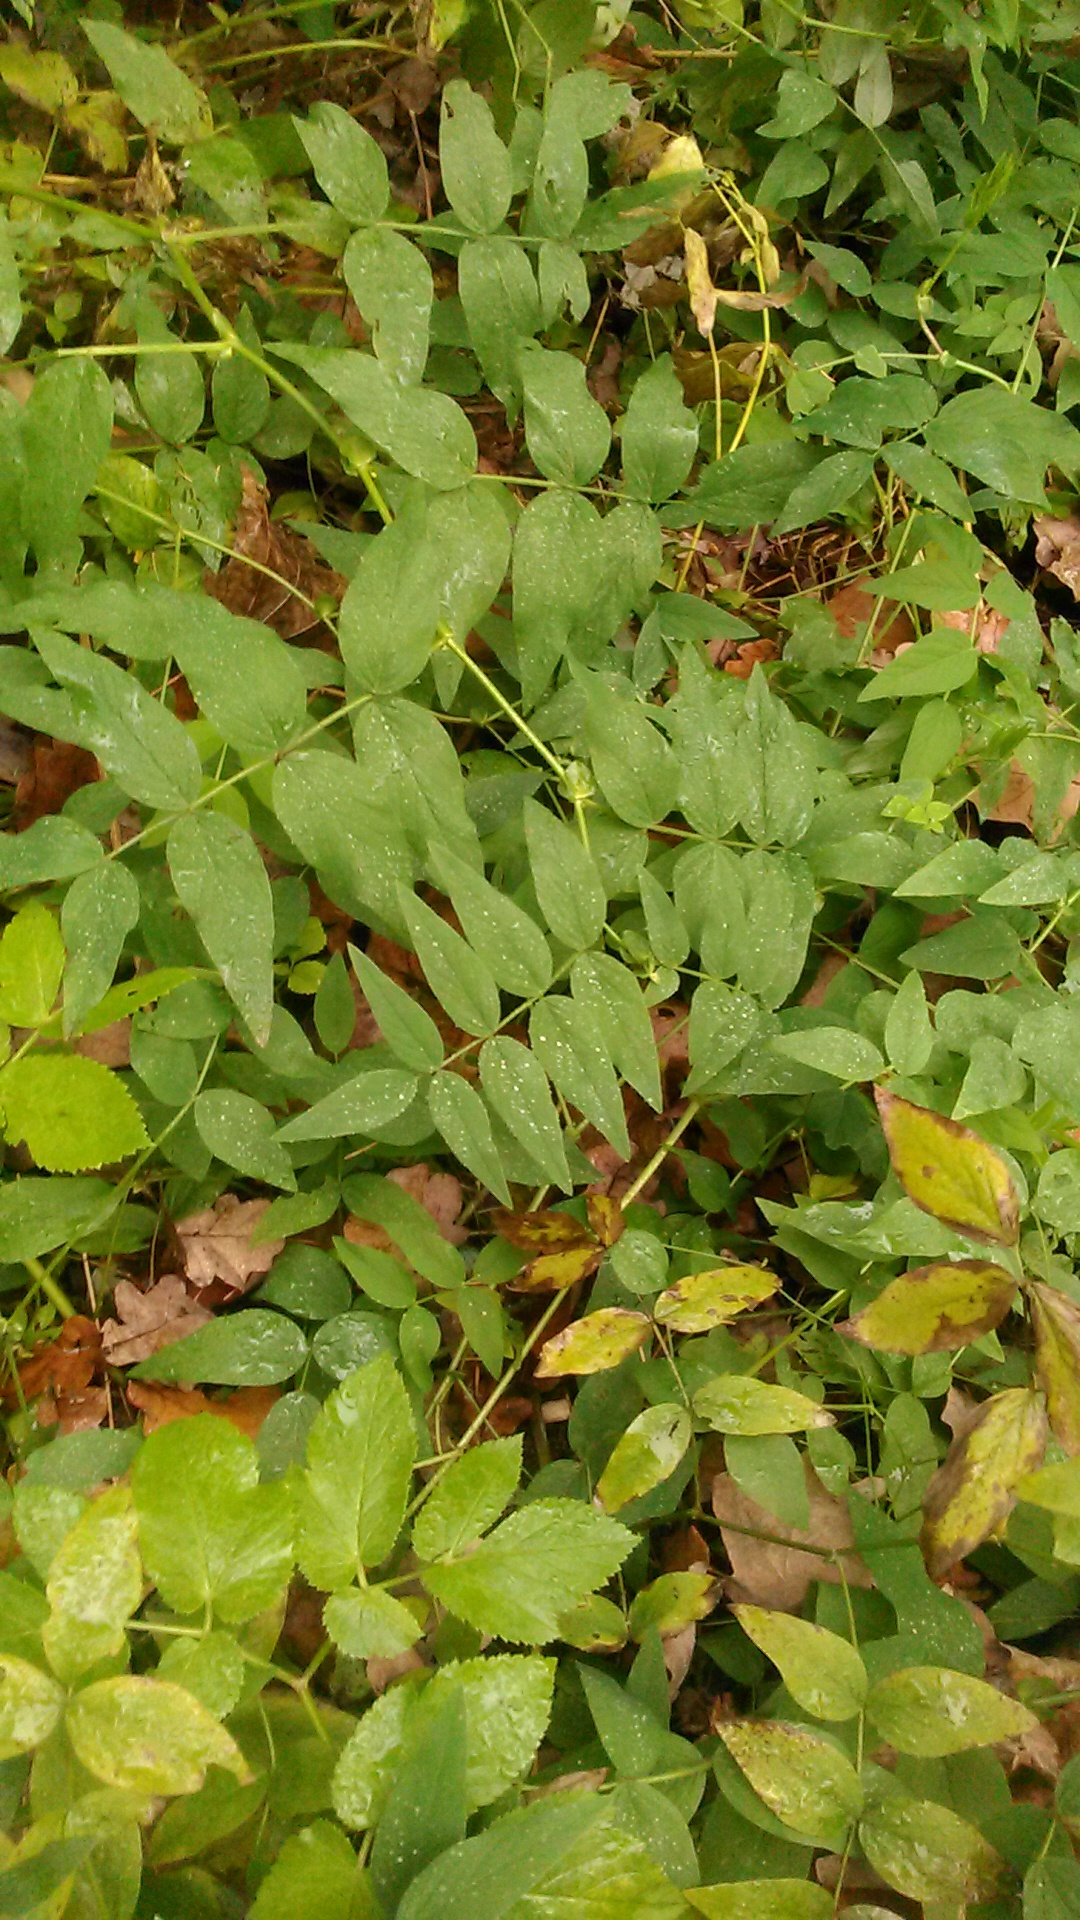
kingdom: Plantae
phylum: Tracheophyta
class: Magnoliopsida
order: Fabales
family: Fabaceae
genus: Vicia
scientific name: Vicia sepium
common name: Bush vetch
